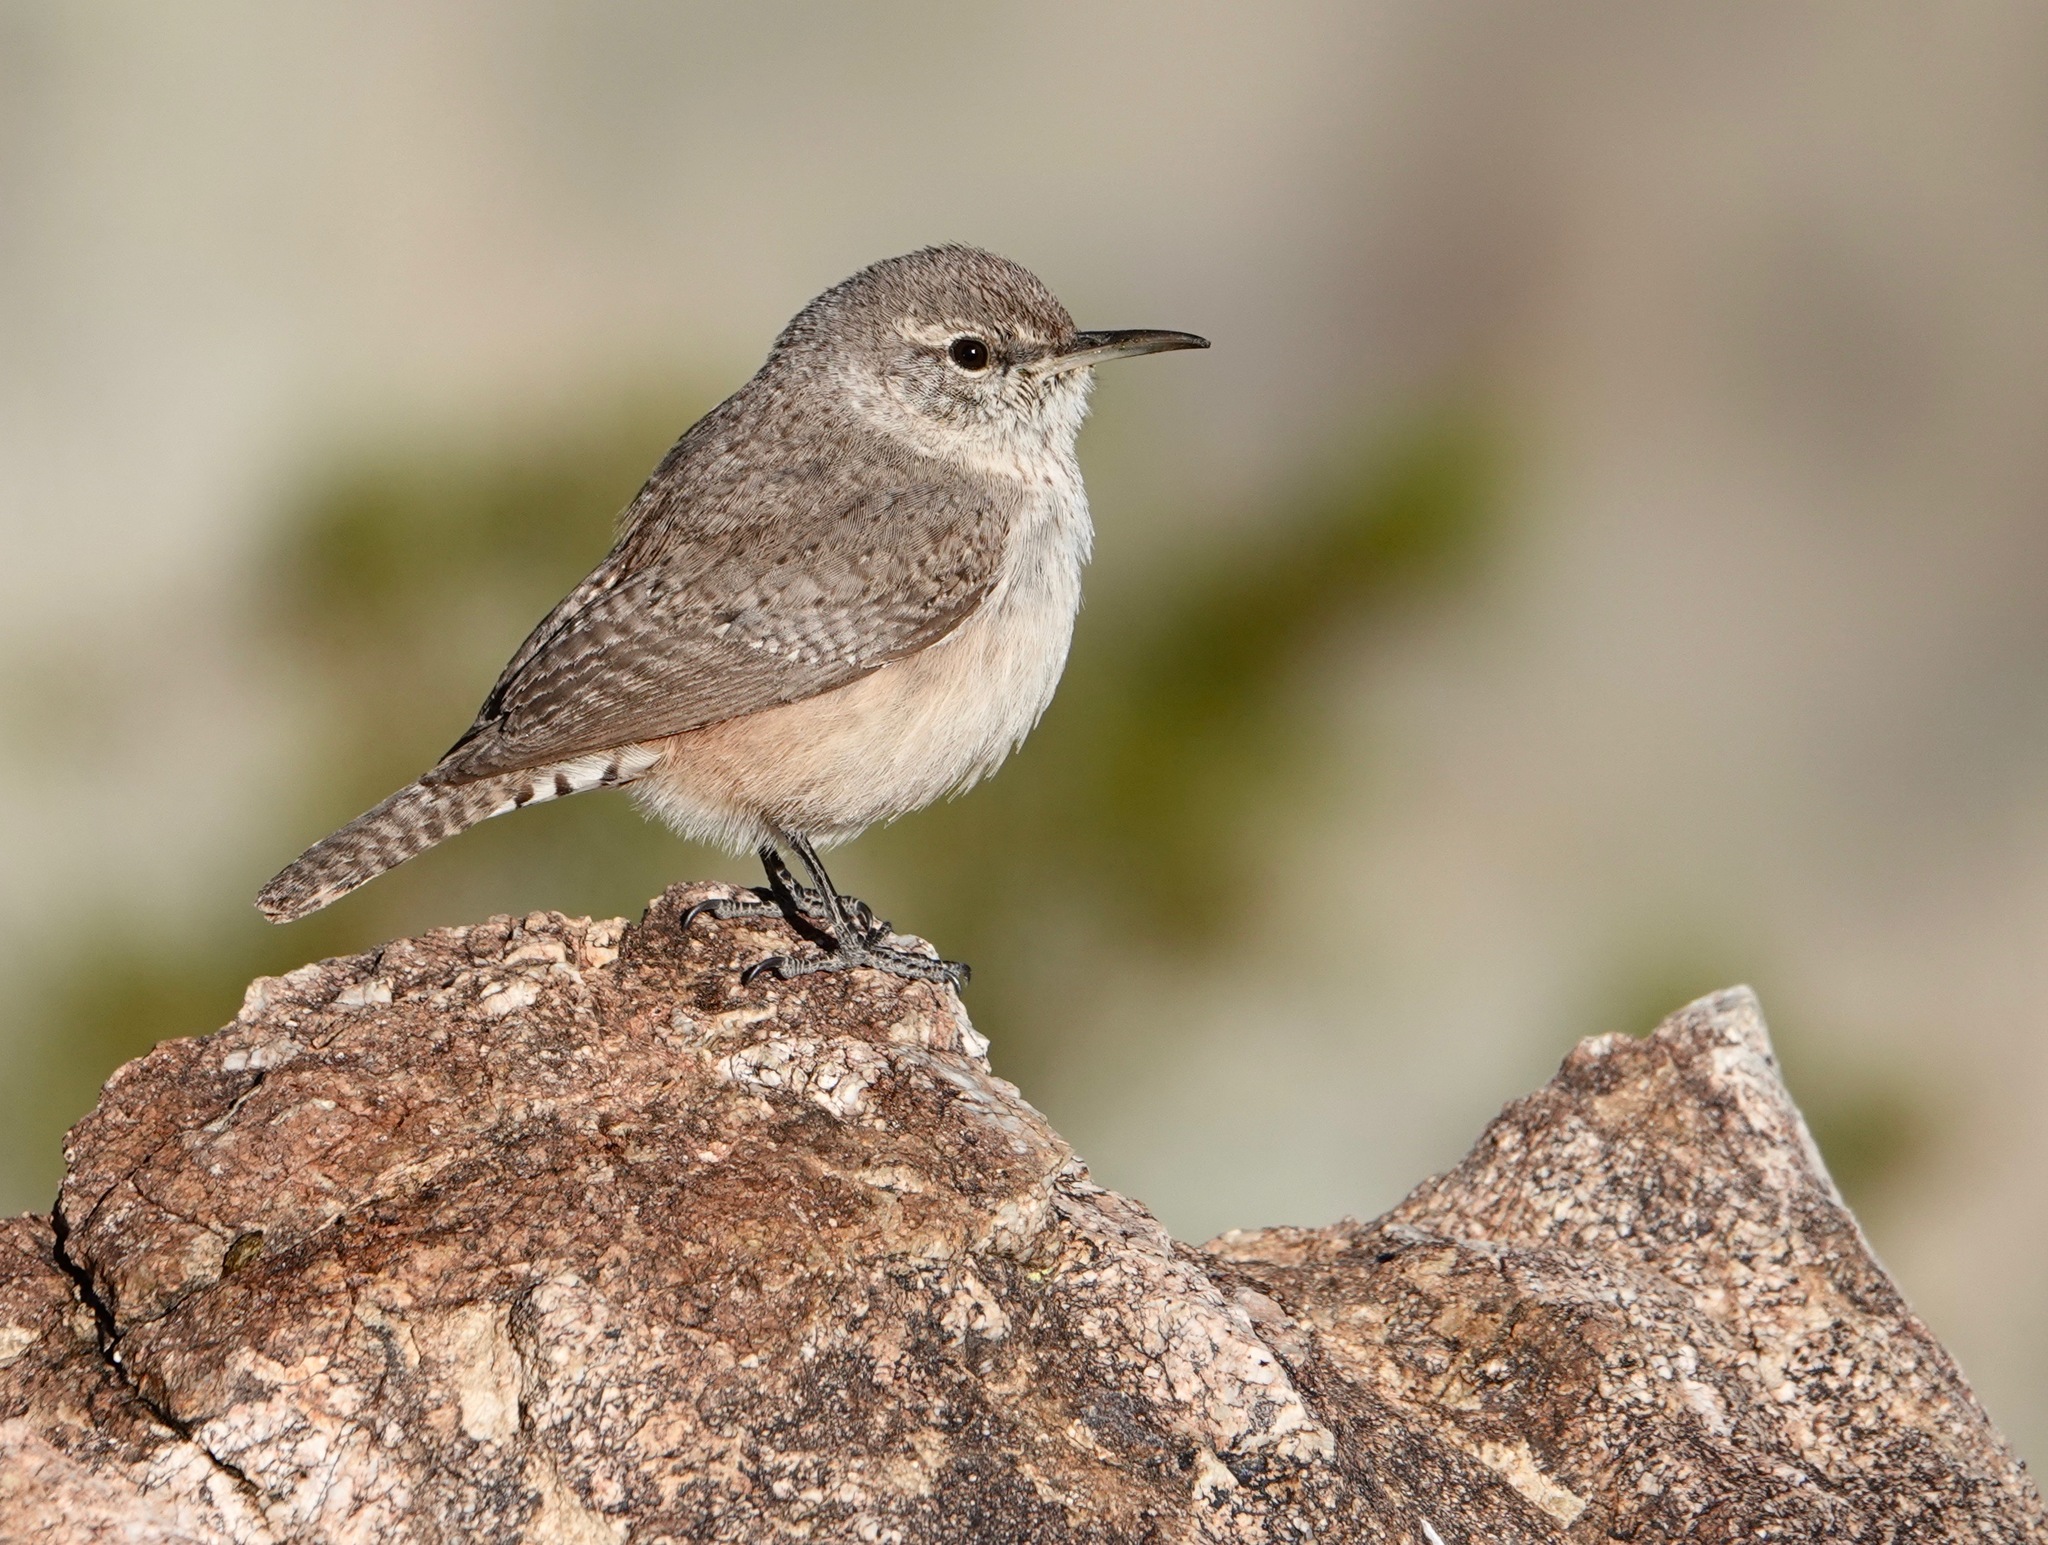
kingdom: Animalia
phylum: Chordata
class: Aves
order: Passeriformes
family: Troglodytidae
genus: Salpinctes
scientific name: Salpinctes obsoletus
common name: Rock wren
